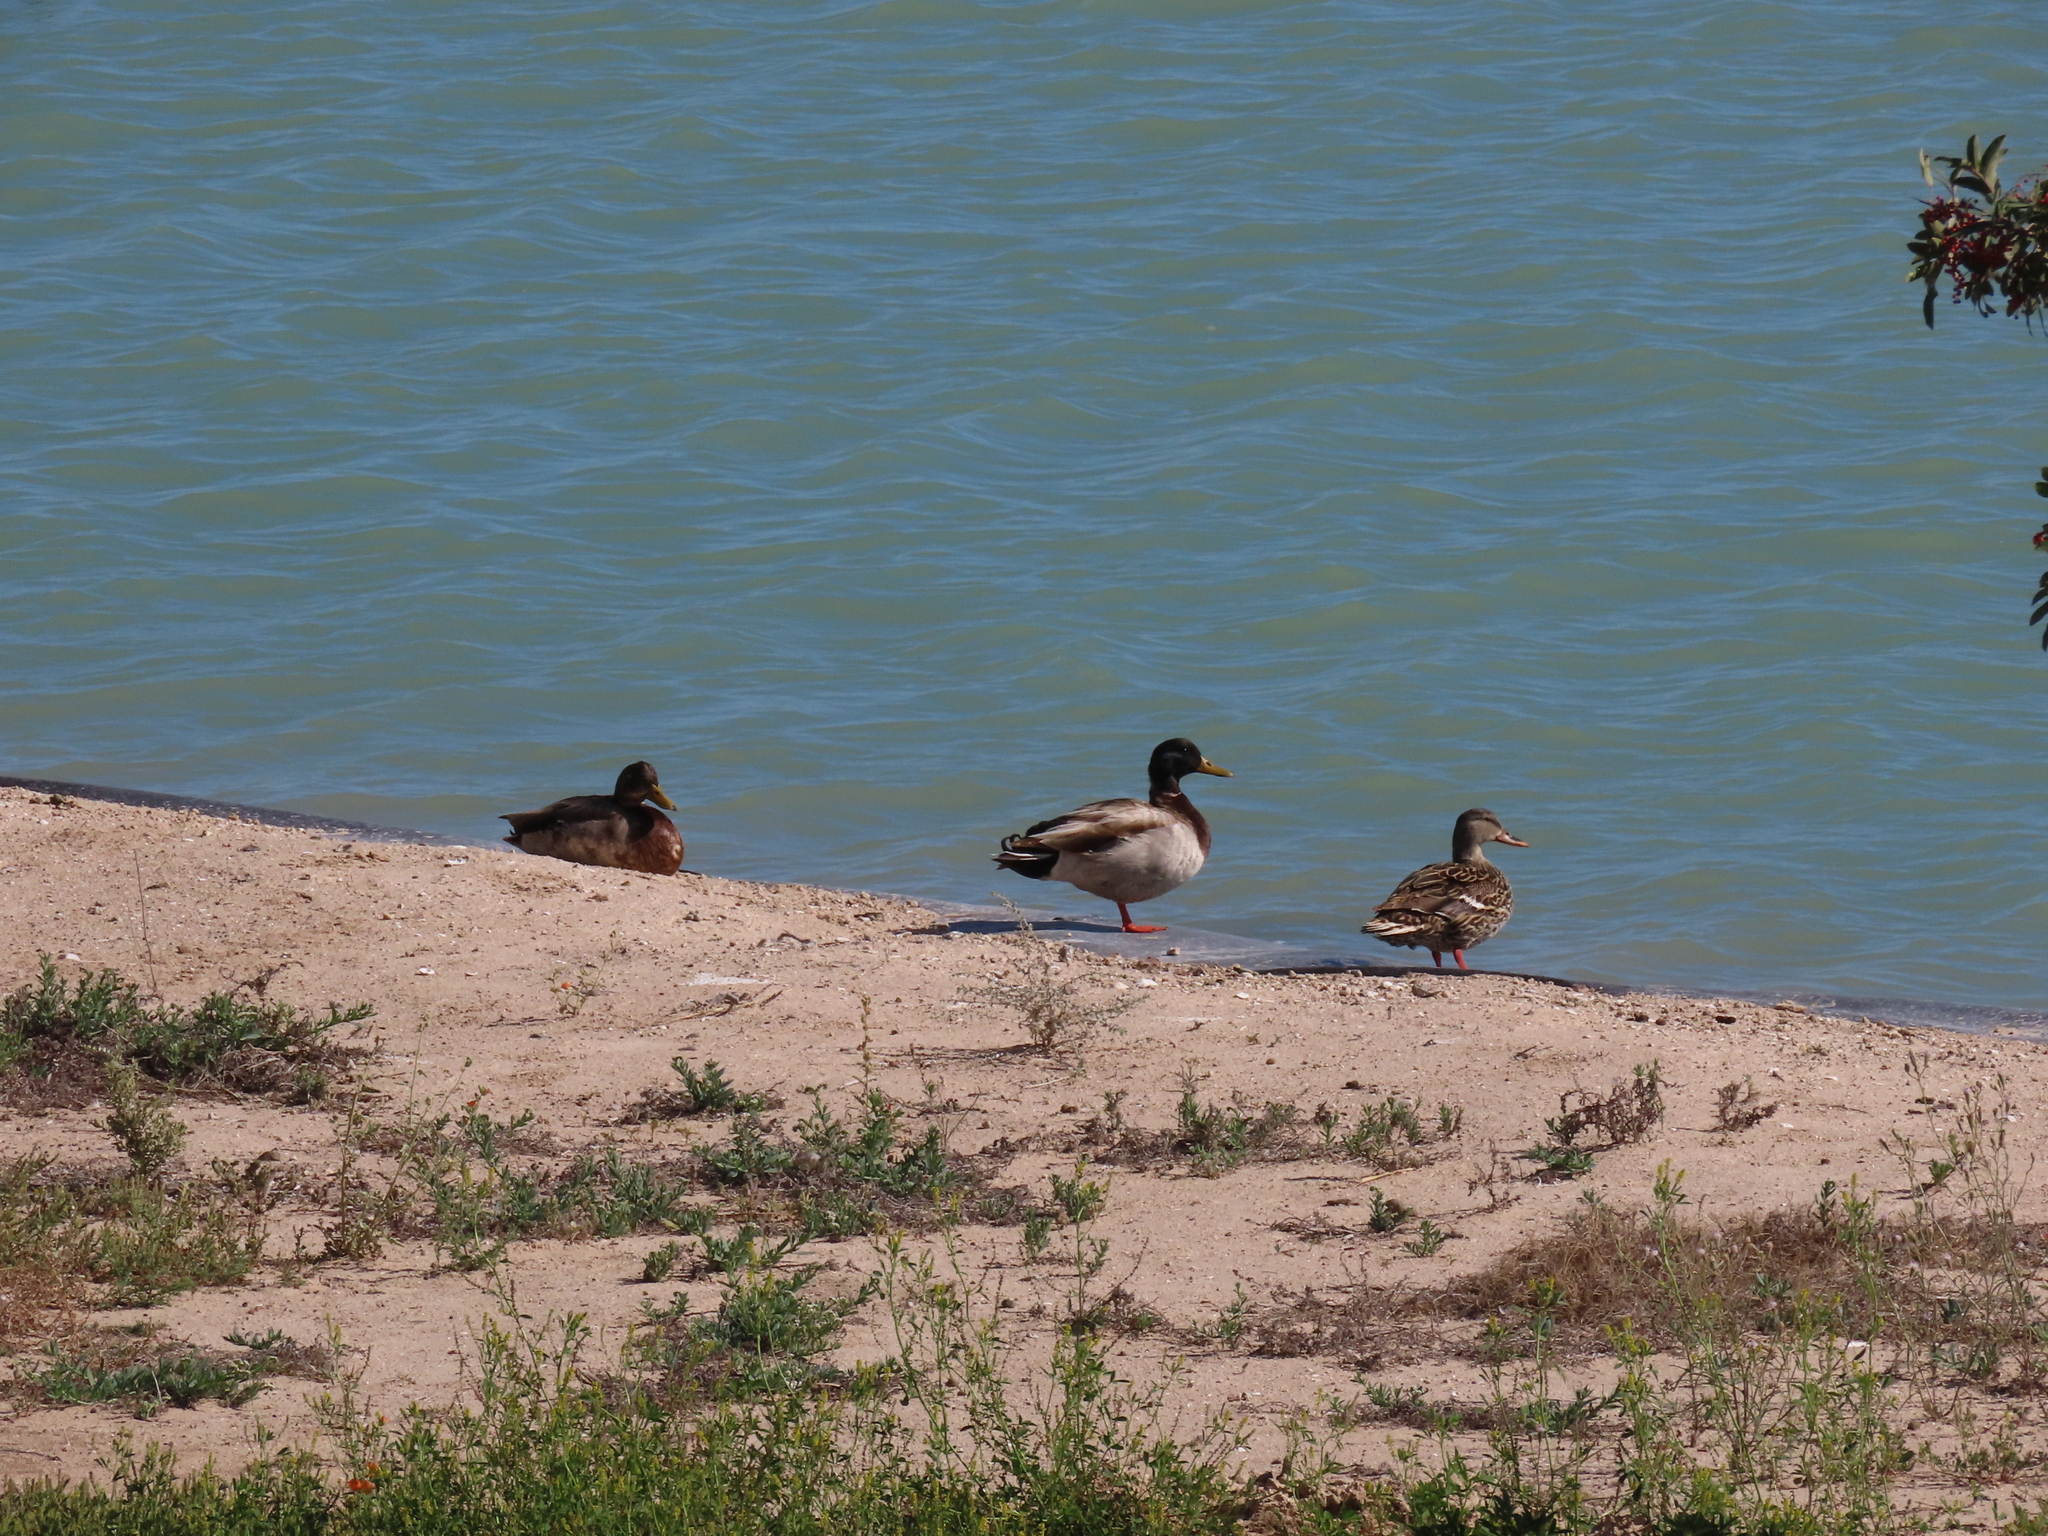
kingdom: Animalia
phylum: Chordata
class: Aves
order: Anseriformes
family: Anatidae
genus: Anas
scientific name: Anas platyrhynchos
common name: Mallard
